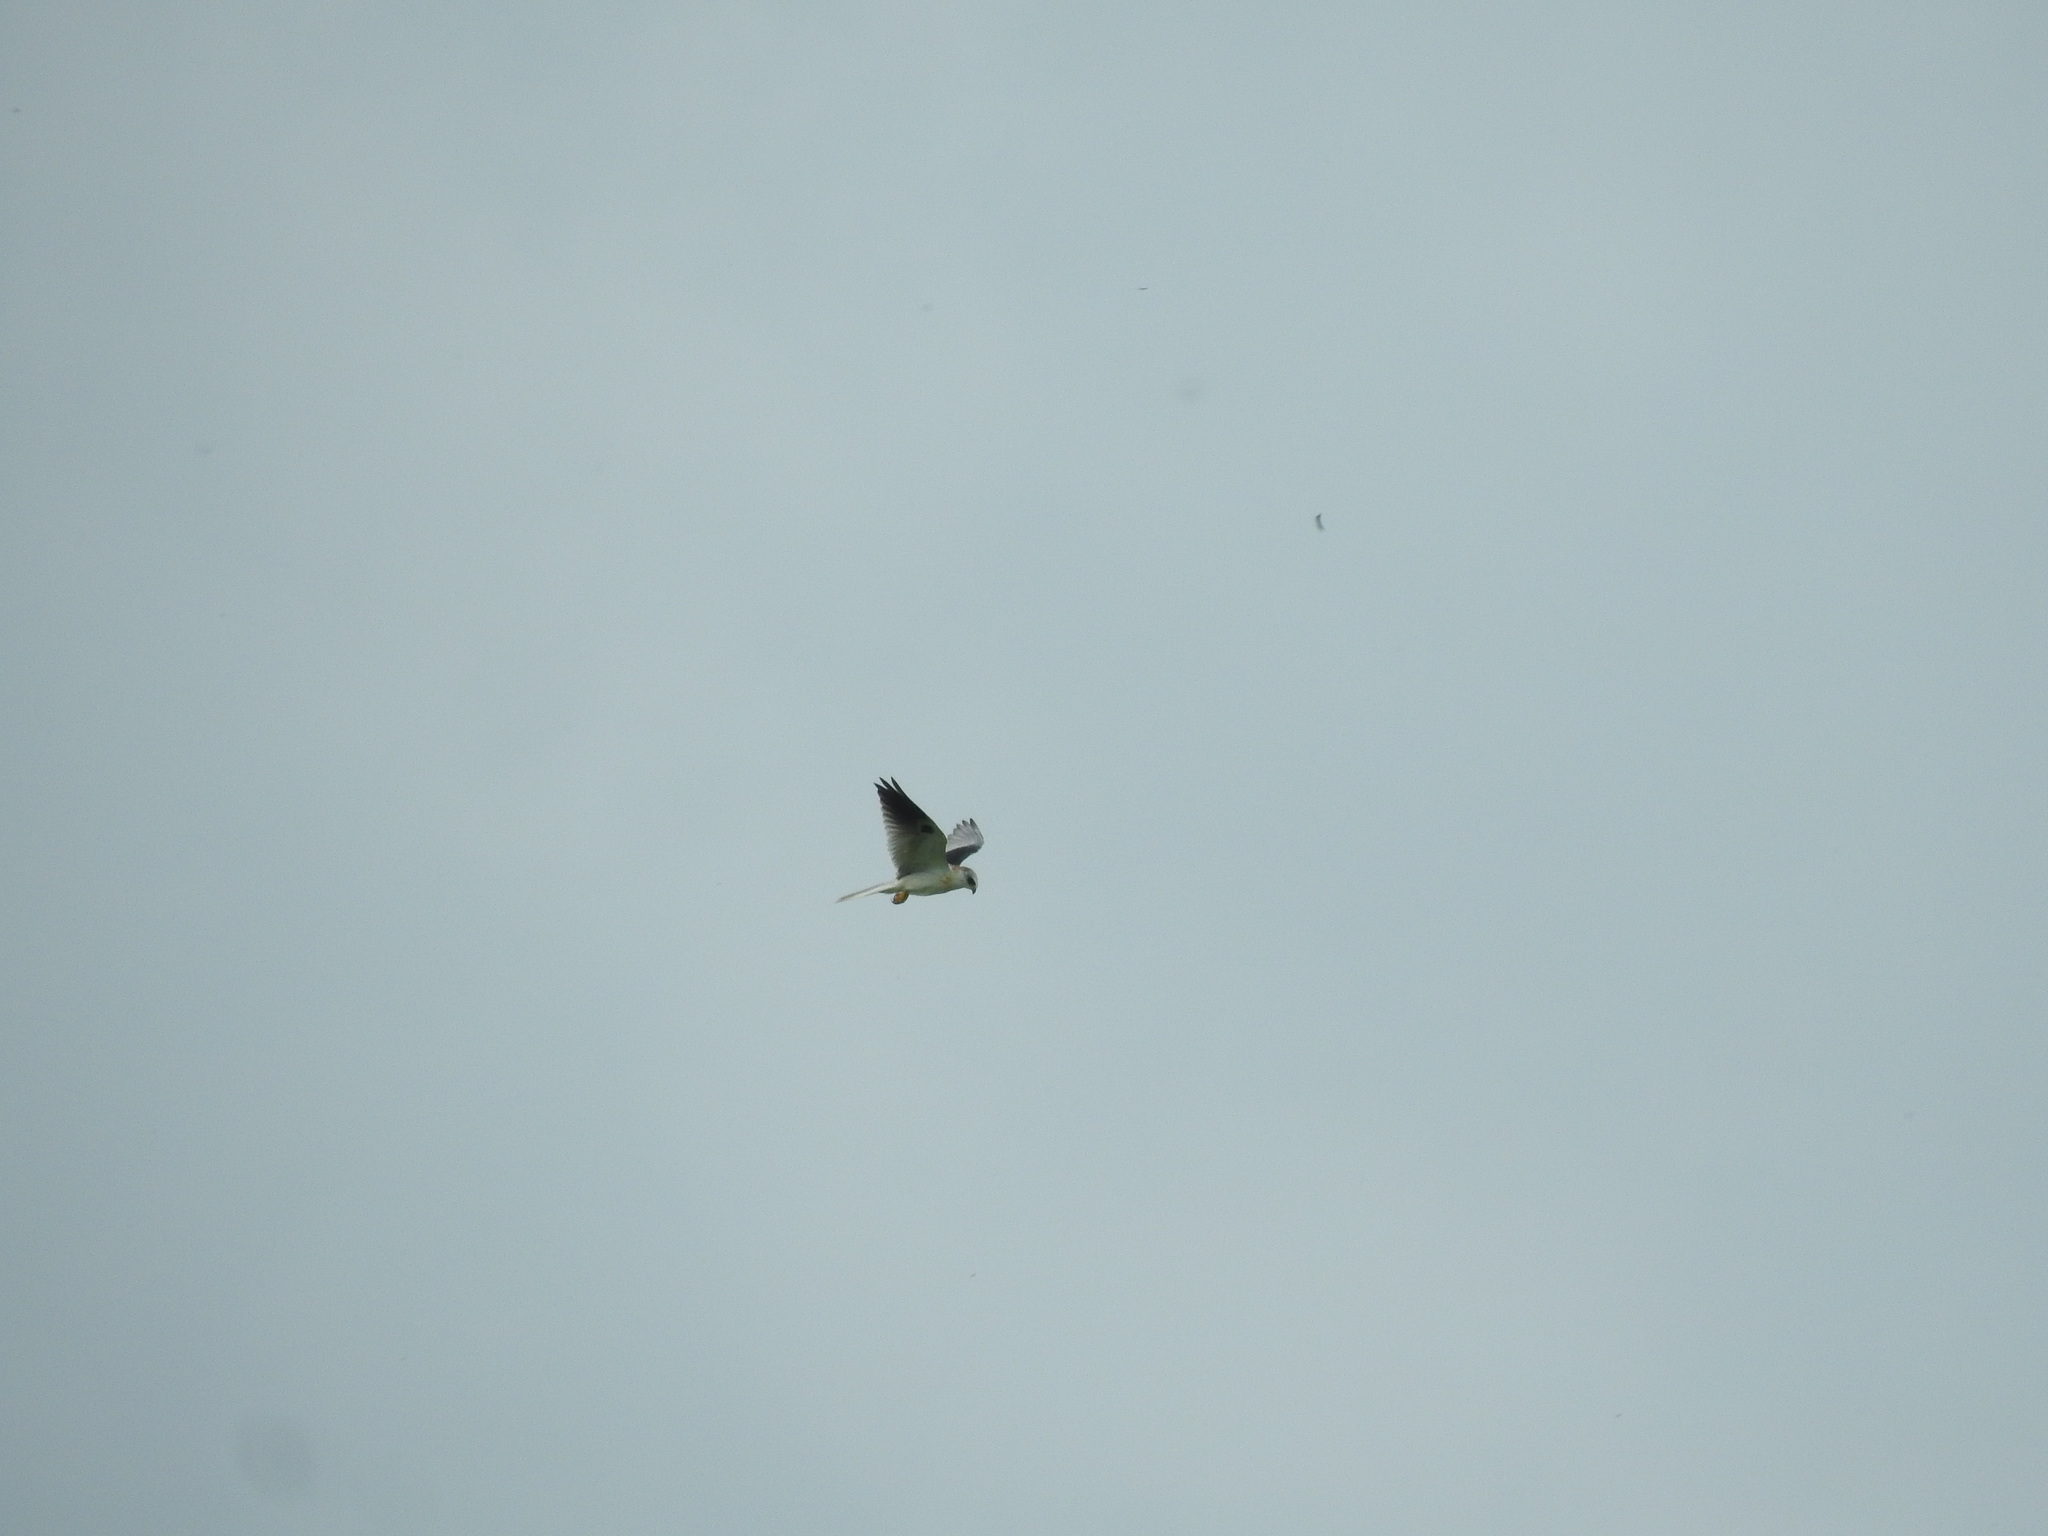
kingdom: Animalia
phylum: Chordata
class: Aves
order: Accipitriformes
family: Accipitridae
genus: Elanus
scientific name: Elanus leucurus
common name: White-tailed kite
